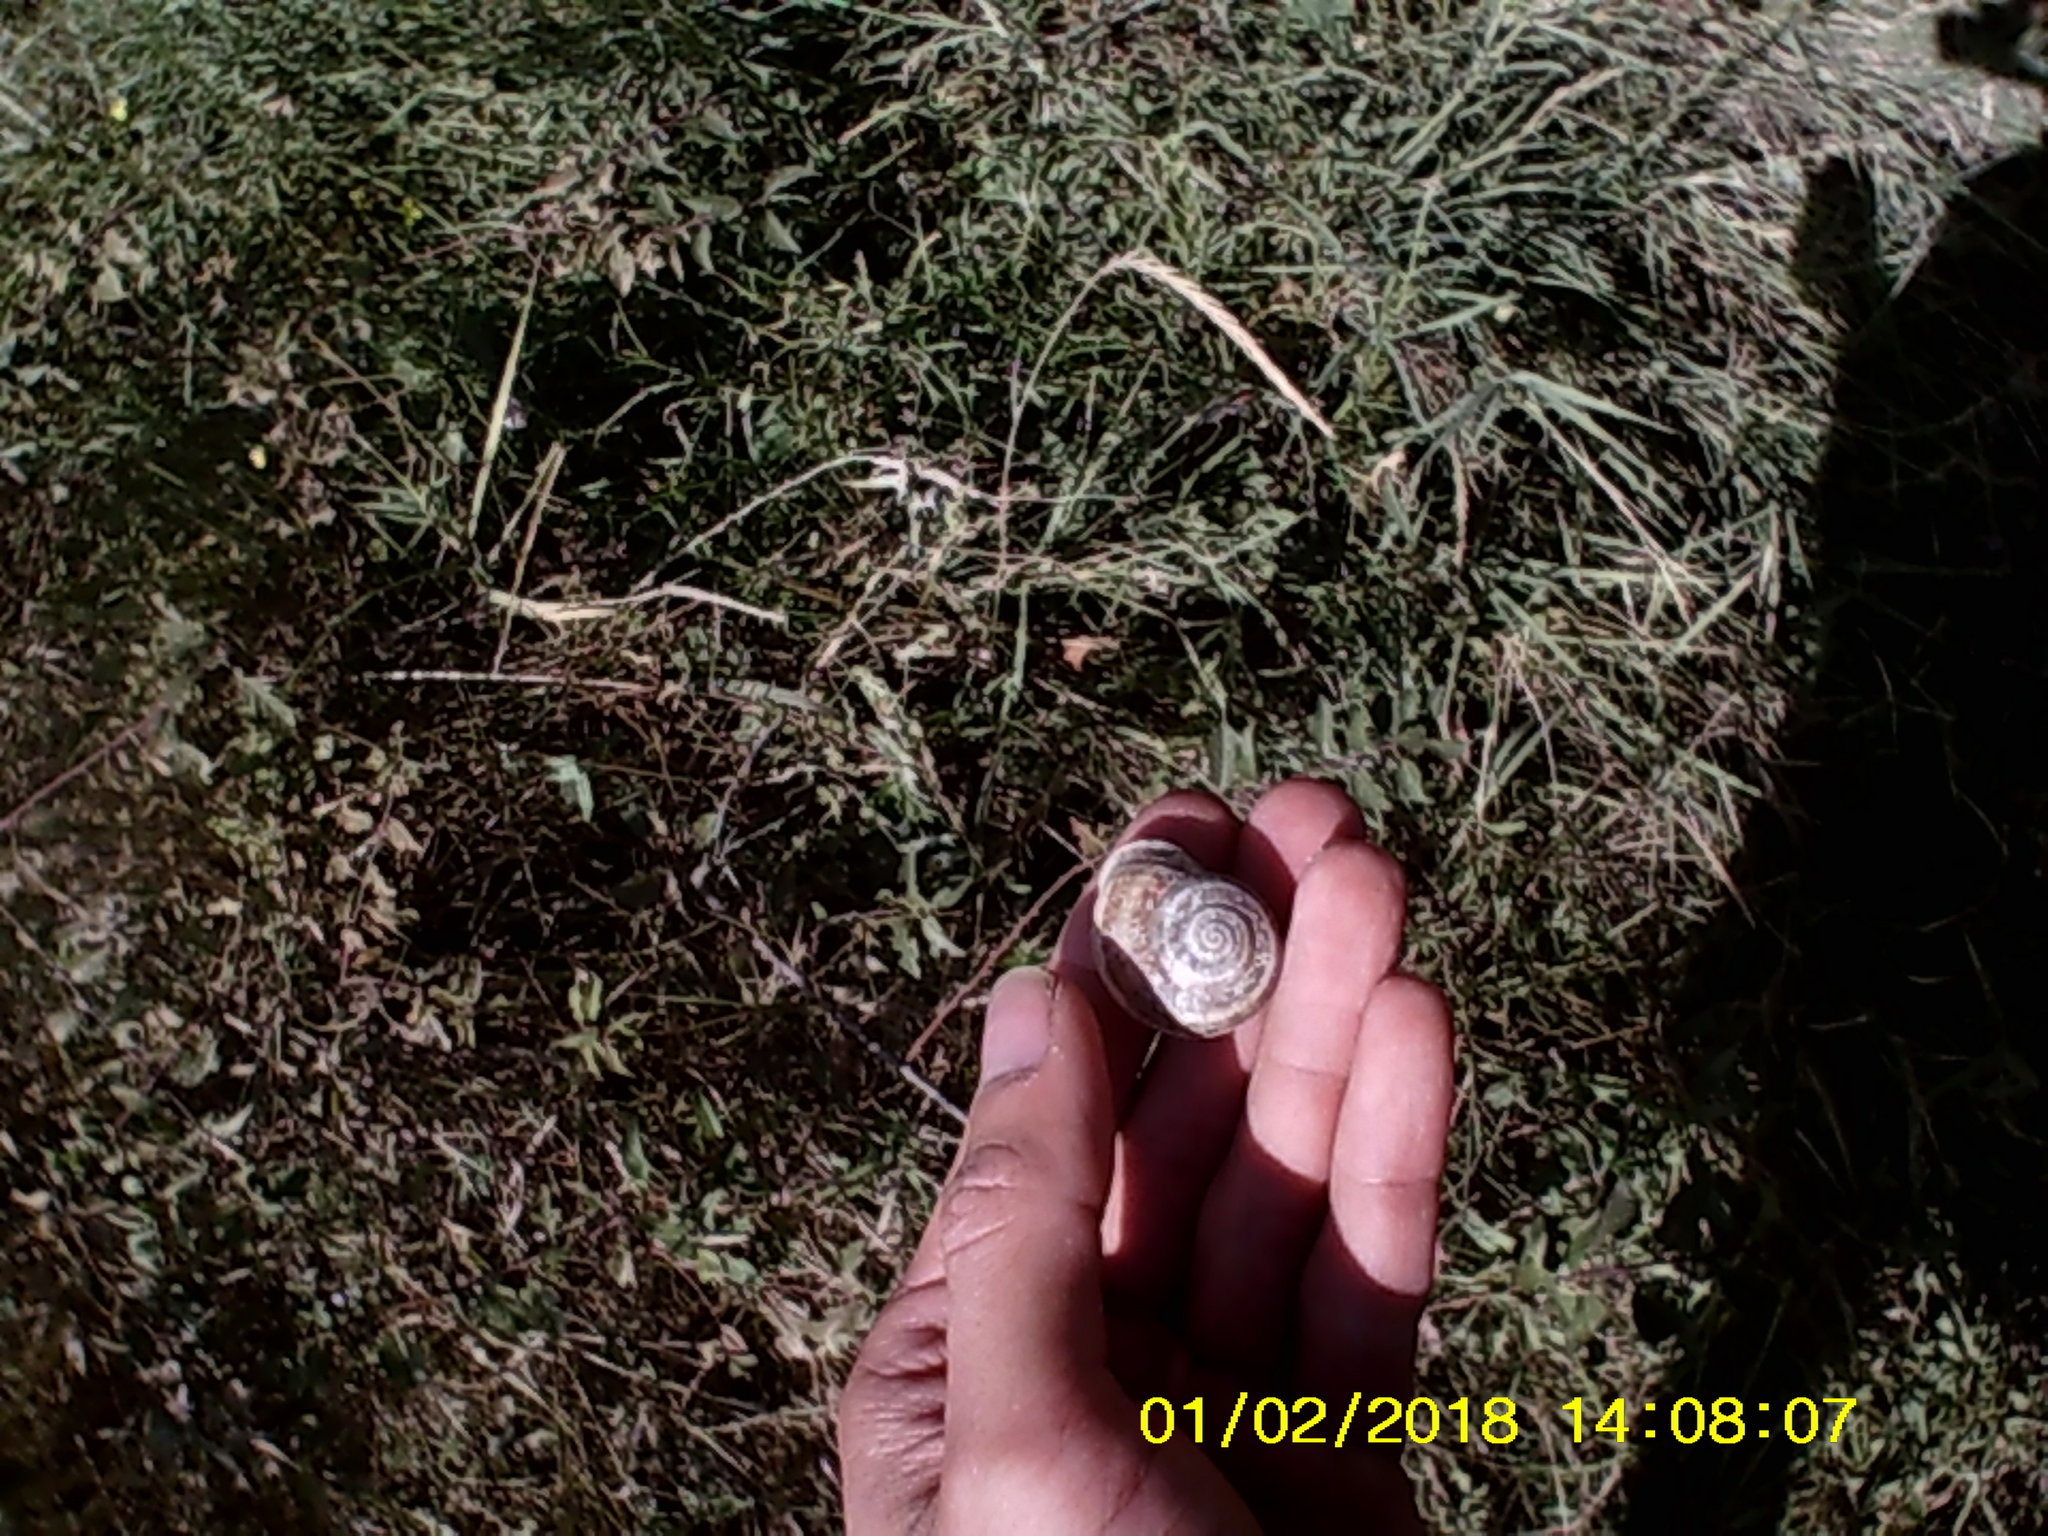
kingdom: Animalia
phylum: Mollusca
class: Gastropoda
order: Stylommatophora
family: Helicidae
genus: Eobania
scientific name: Eobania vermiculata
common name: Chocolateband snail
